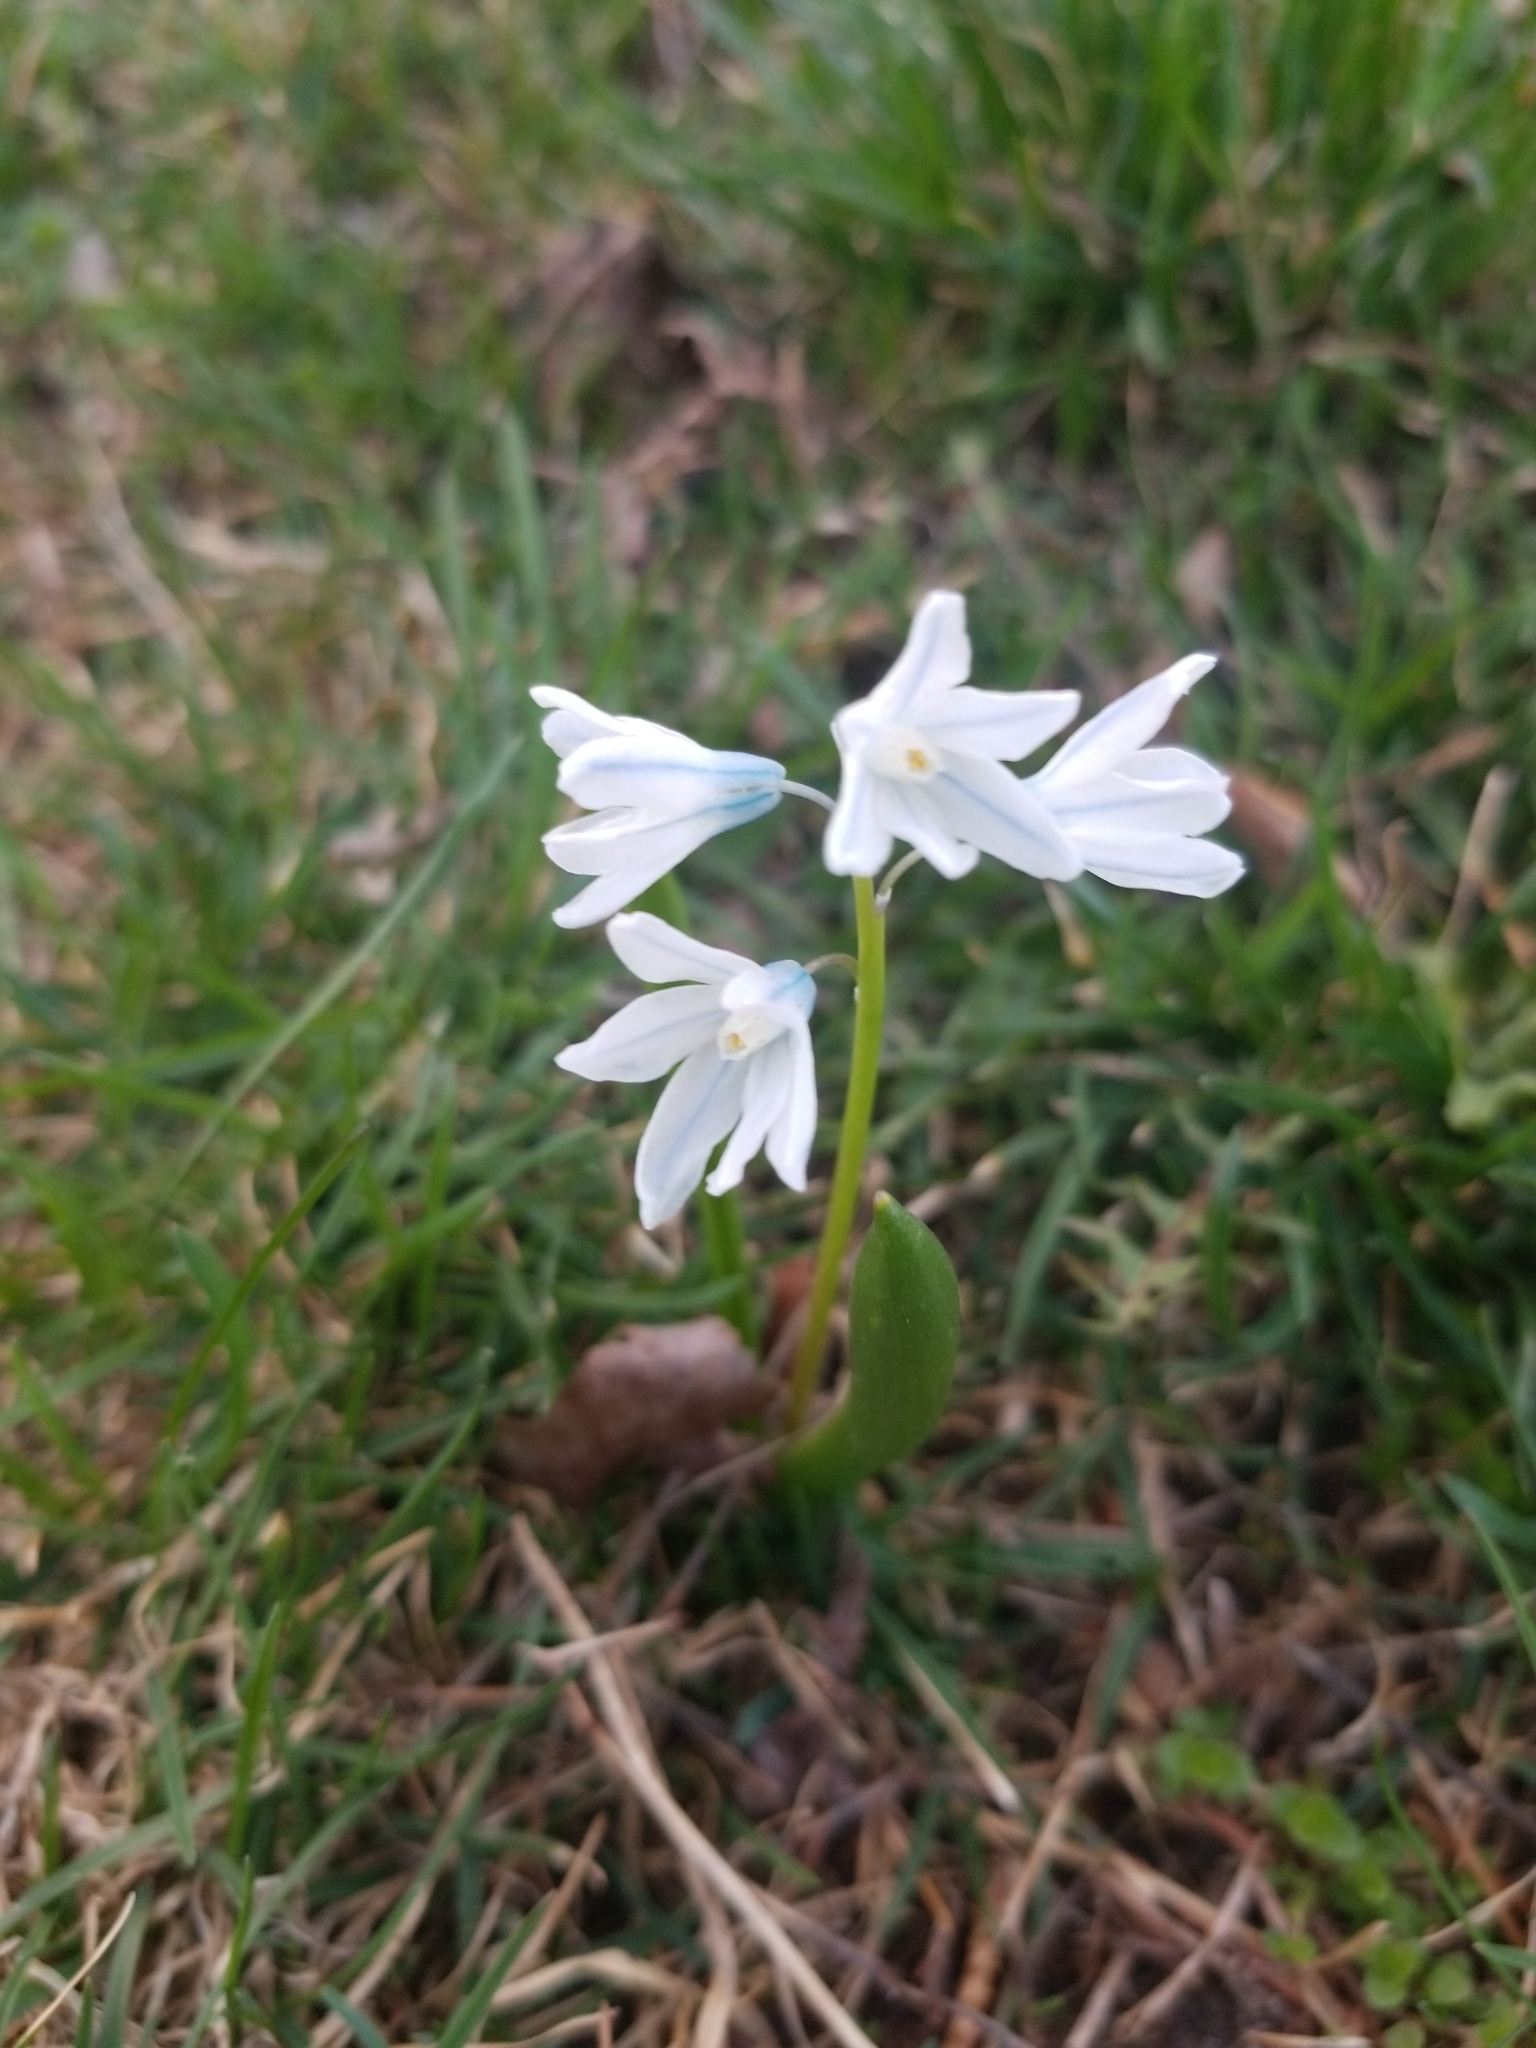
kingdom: Plantae
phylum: Tracheophyta
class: Liliopsida
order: Asparagales
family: Asparagaceae
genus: Puschkinia
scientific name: Puschkinia scilloides
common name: Striped squill
